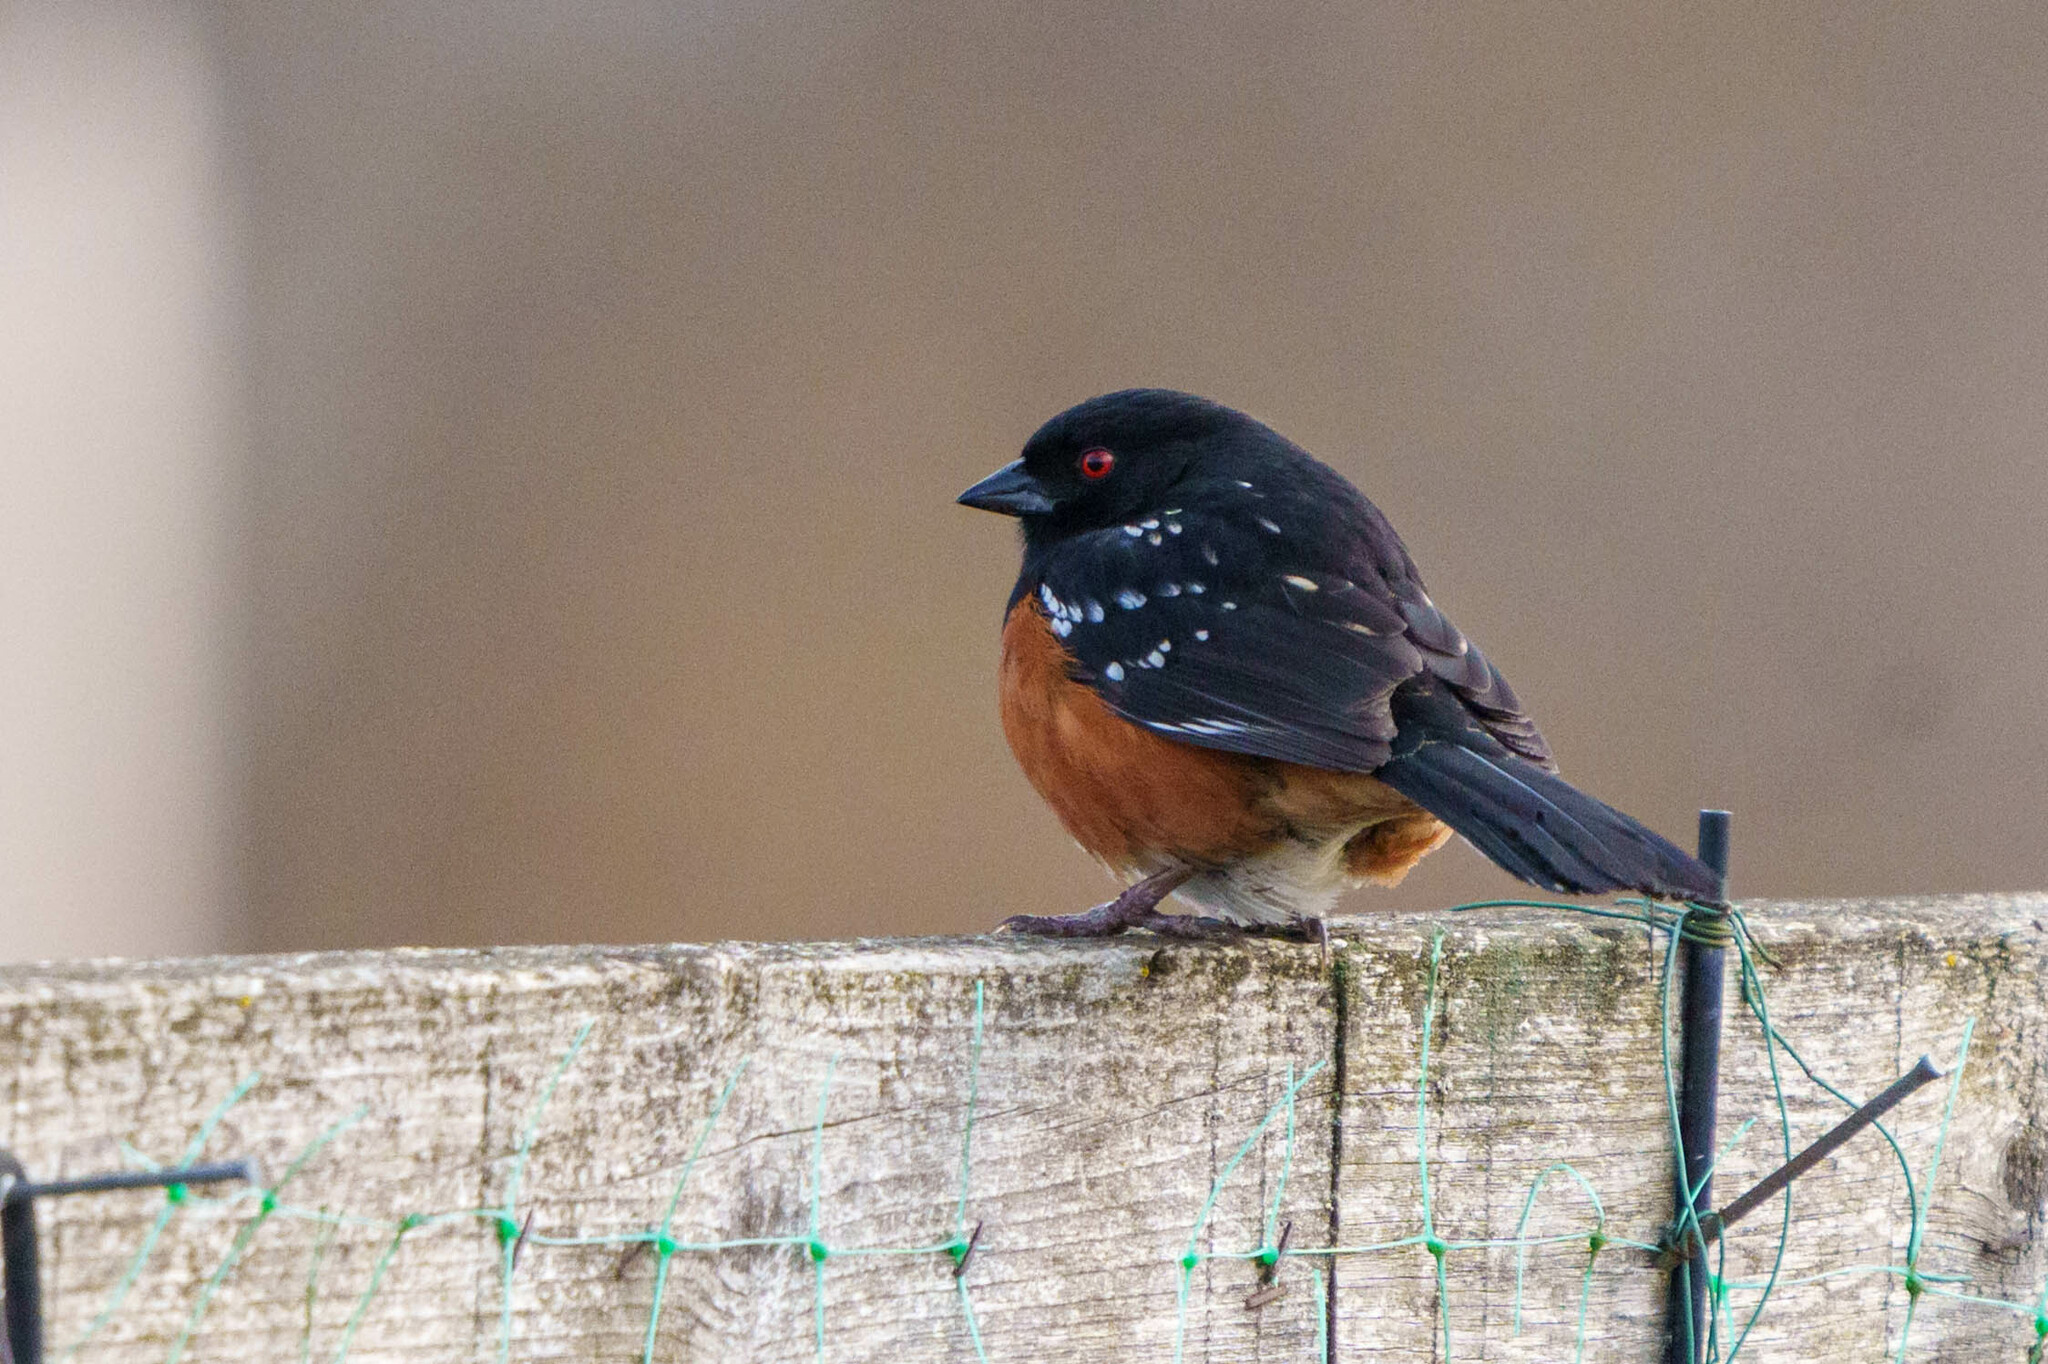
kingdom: Animalia
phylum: Chordata
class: Aves
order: Passeriformes
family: Passerellidae
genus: Pipilo
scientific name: Pipilo maculatus
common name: Spotted towhee
